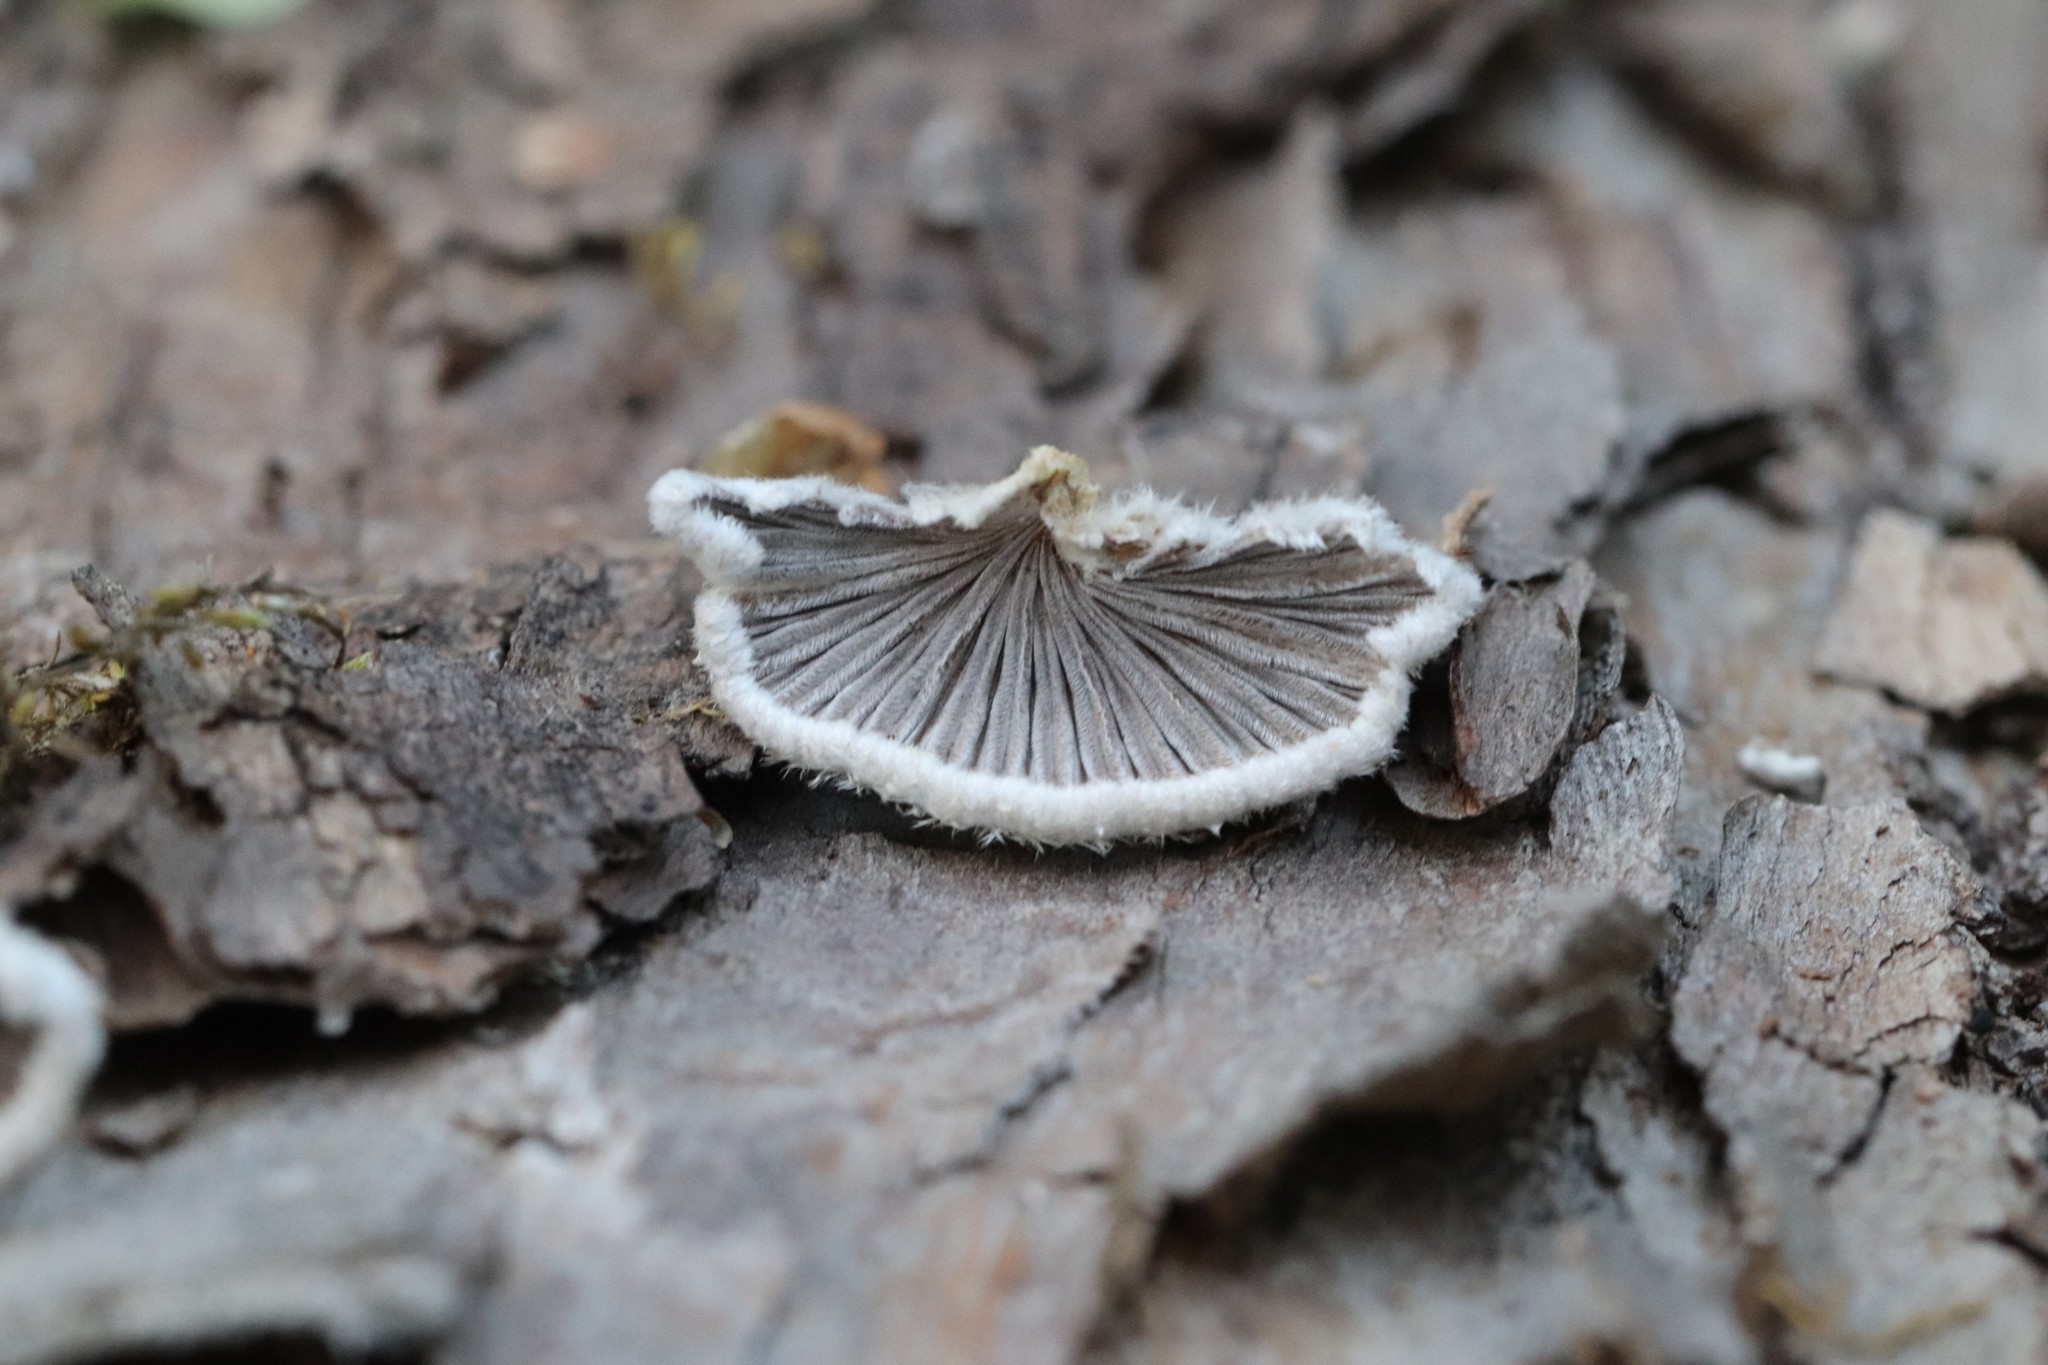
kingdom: Fungi
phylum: Basidiomycota
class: Agaricomycetes
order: Agaricales
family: Schizophyllaceae
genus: Schizophyllum
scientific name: Schizophyllum commune
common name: Common porecrust
